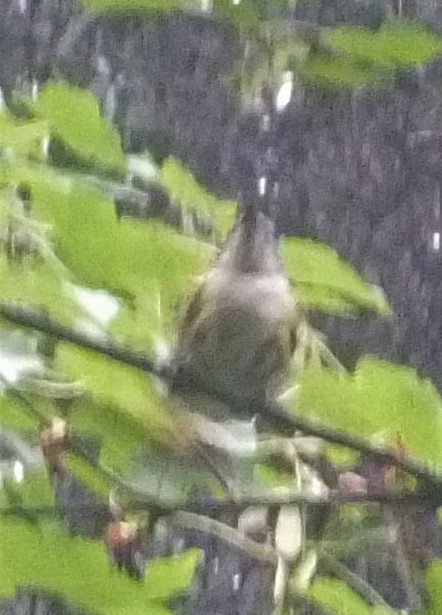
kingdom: Animalia
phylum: Chordata
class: Aves
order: Passeriformes
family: Parulidae
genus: Setophaga
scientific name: Setophaga ruticilla
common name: American redstart
